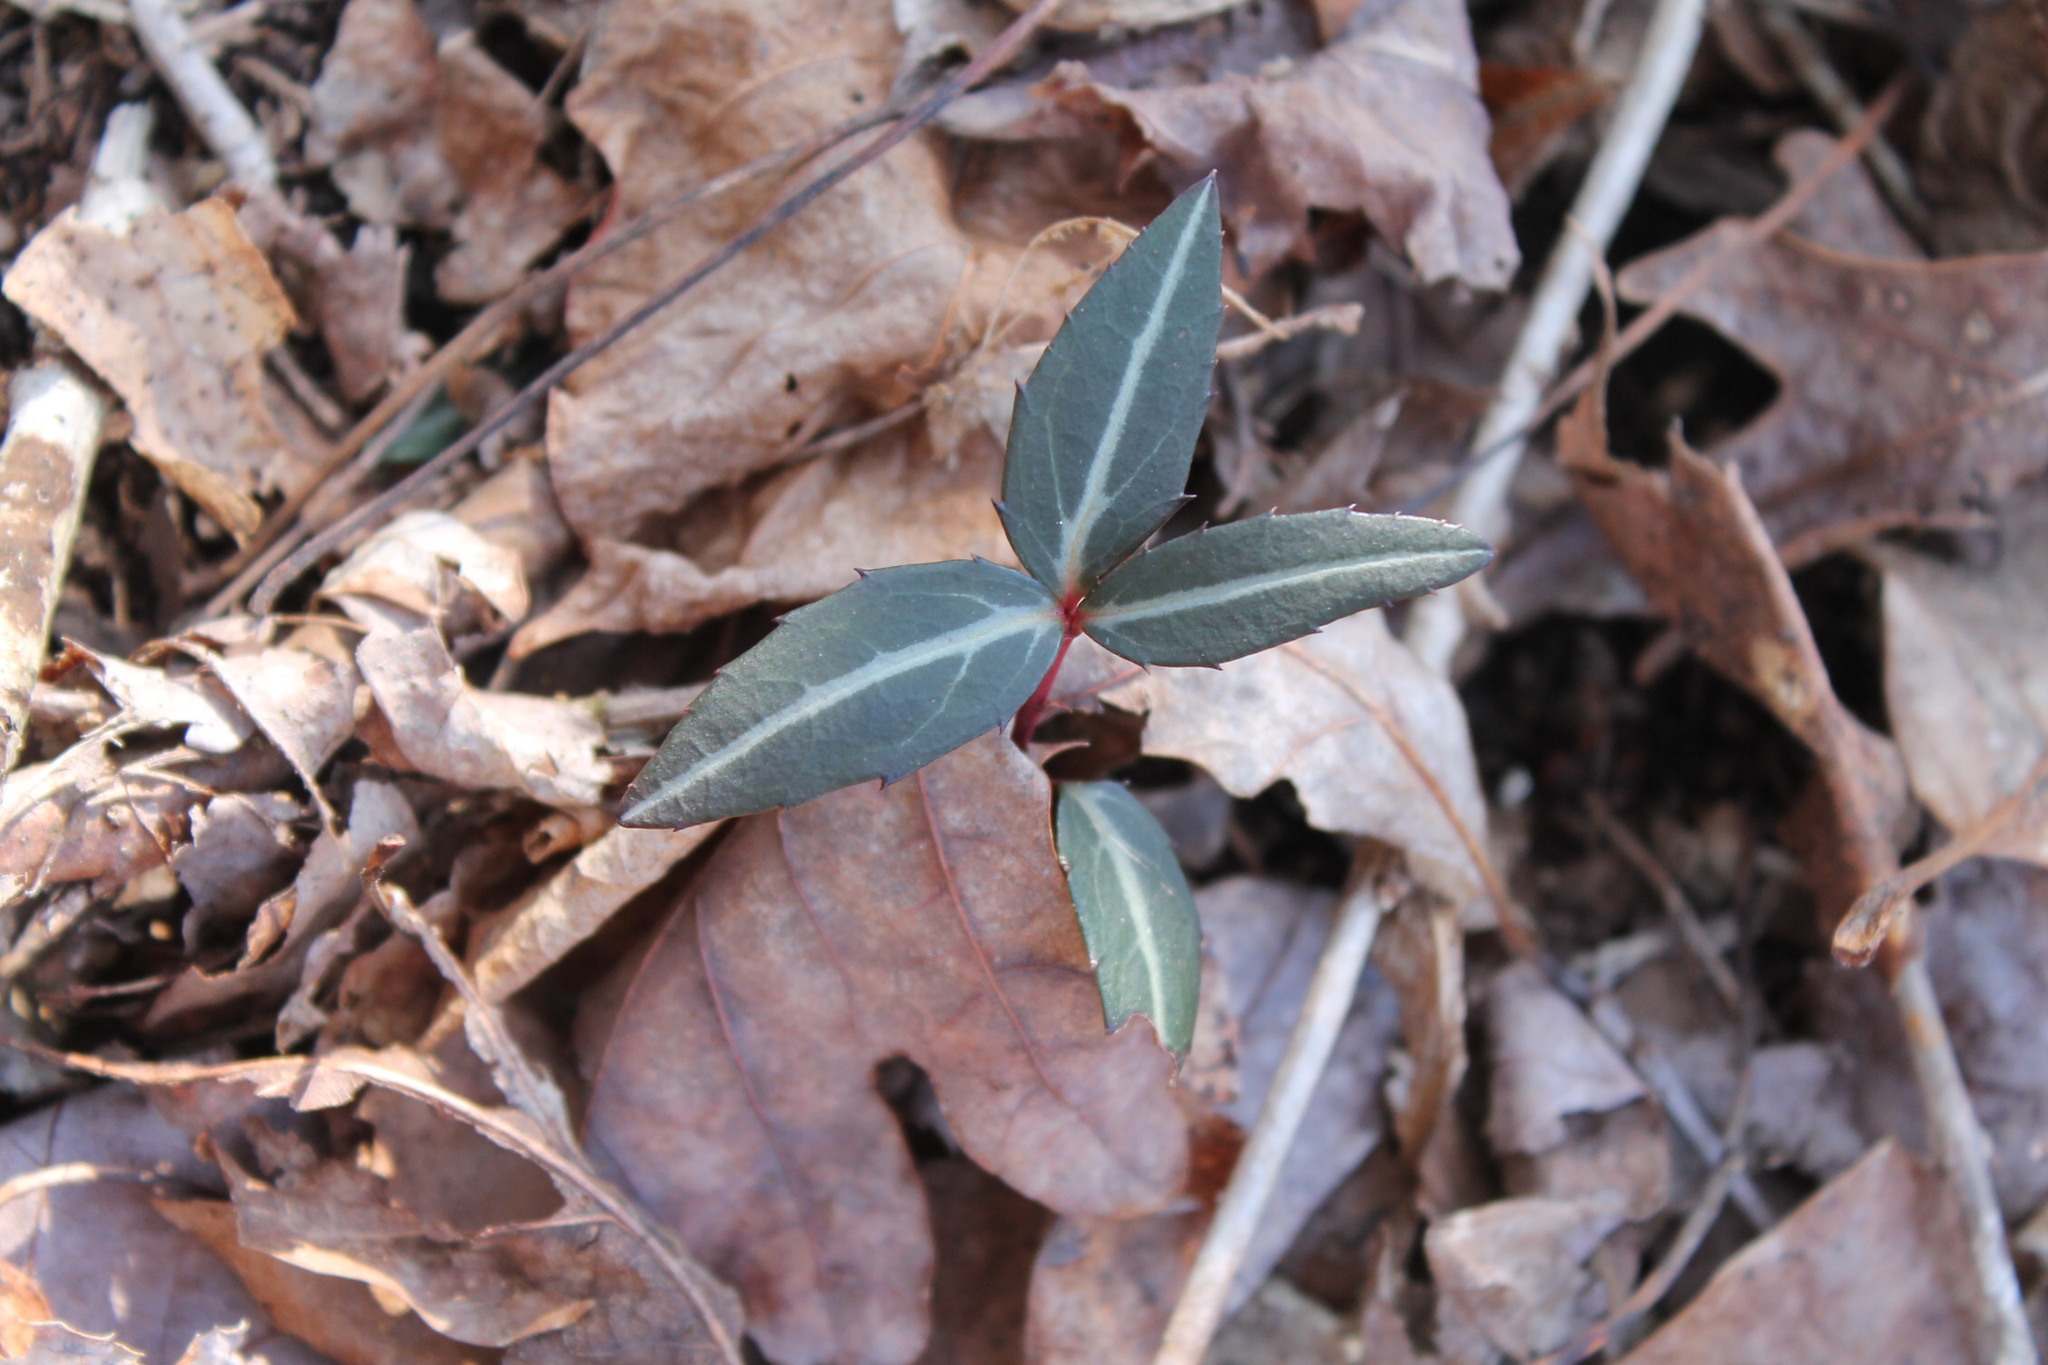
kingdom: Plantae
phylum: Tracheophyta
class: Magnoliopsida
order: Ericales
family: Ericaceae
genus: Chimaphila
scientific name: Chimaphila maculata
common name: Spotted pipsissewa
